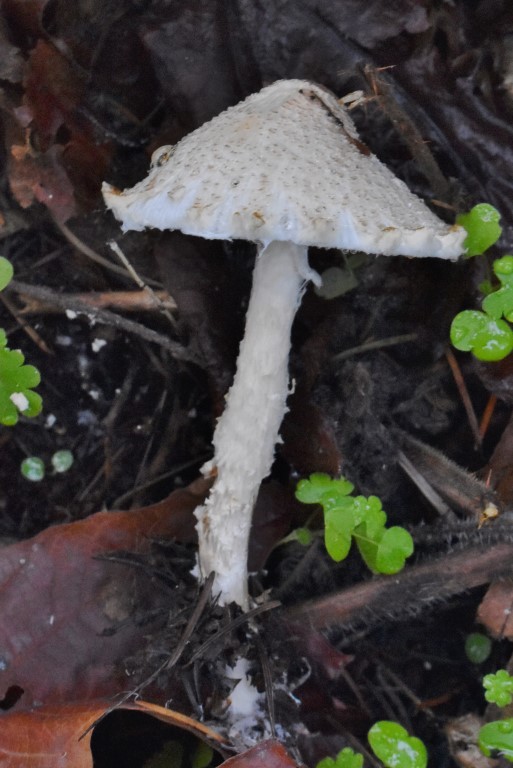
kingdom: Fungi
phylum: Basidiomycota
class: Agaricomycetes
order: Agaricales
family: Agaricaceae
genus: Lepiota
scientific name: Lepiota magnispora
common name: Yellowfoot dapperling
